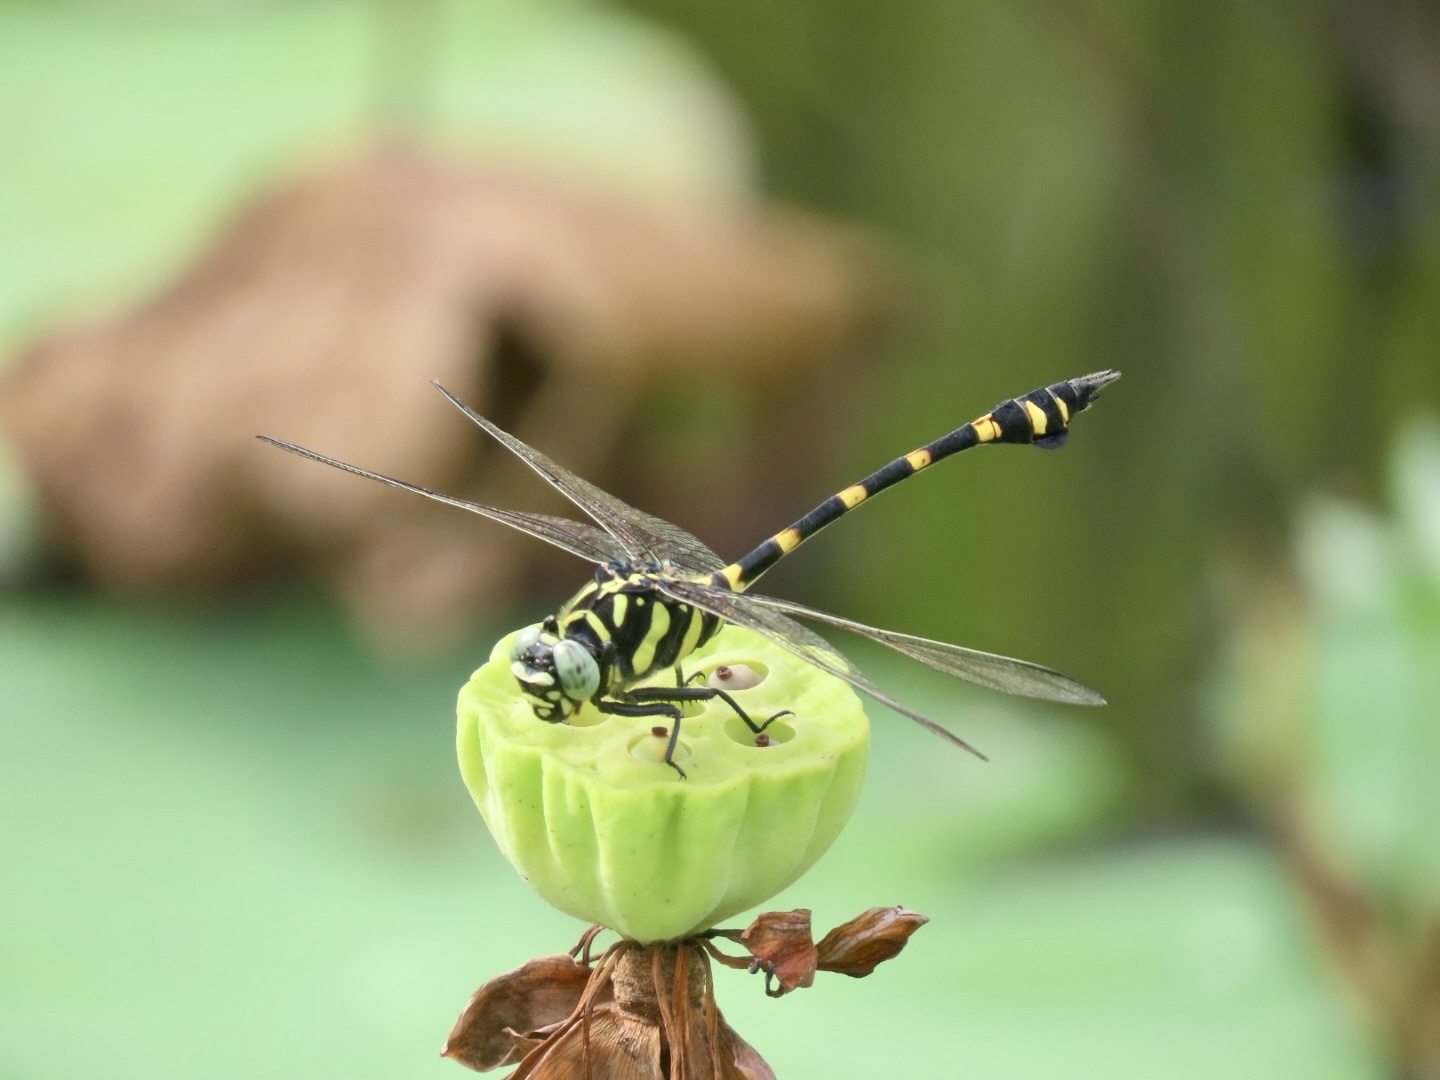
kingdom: Animalia
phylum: Arthropoda
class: Insecta
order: Odonata
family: Gomphidae
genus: Ictinogomphus
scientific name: Ictinogomphus decoratus
